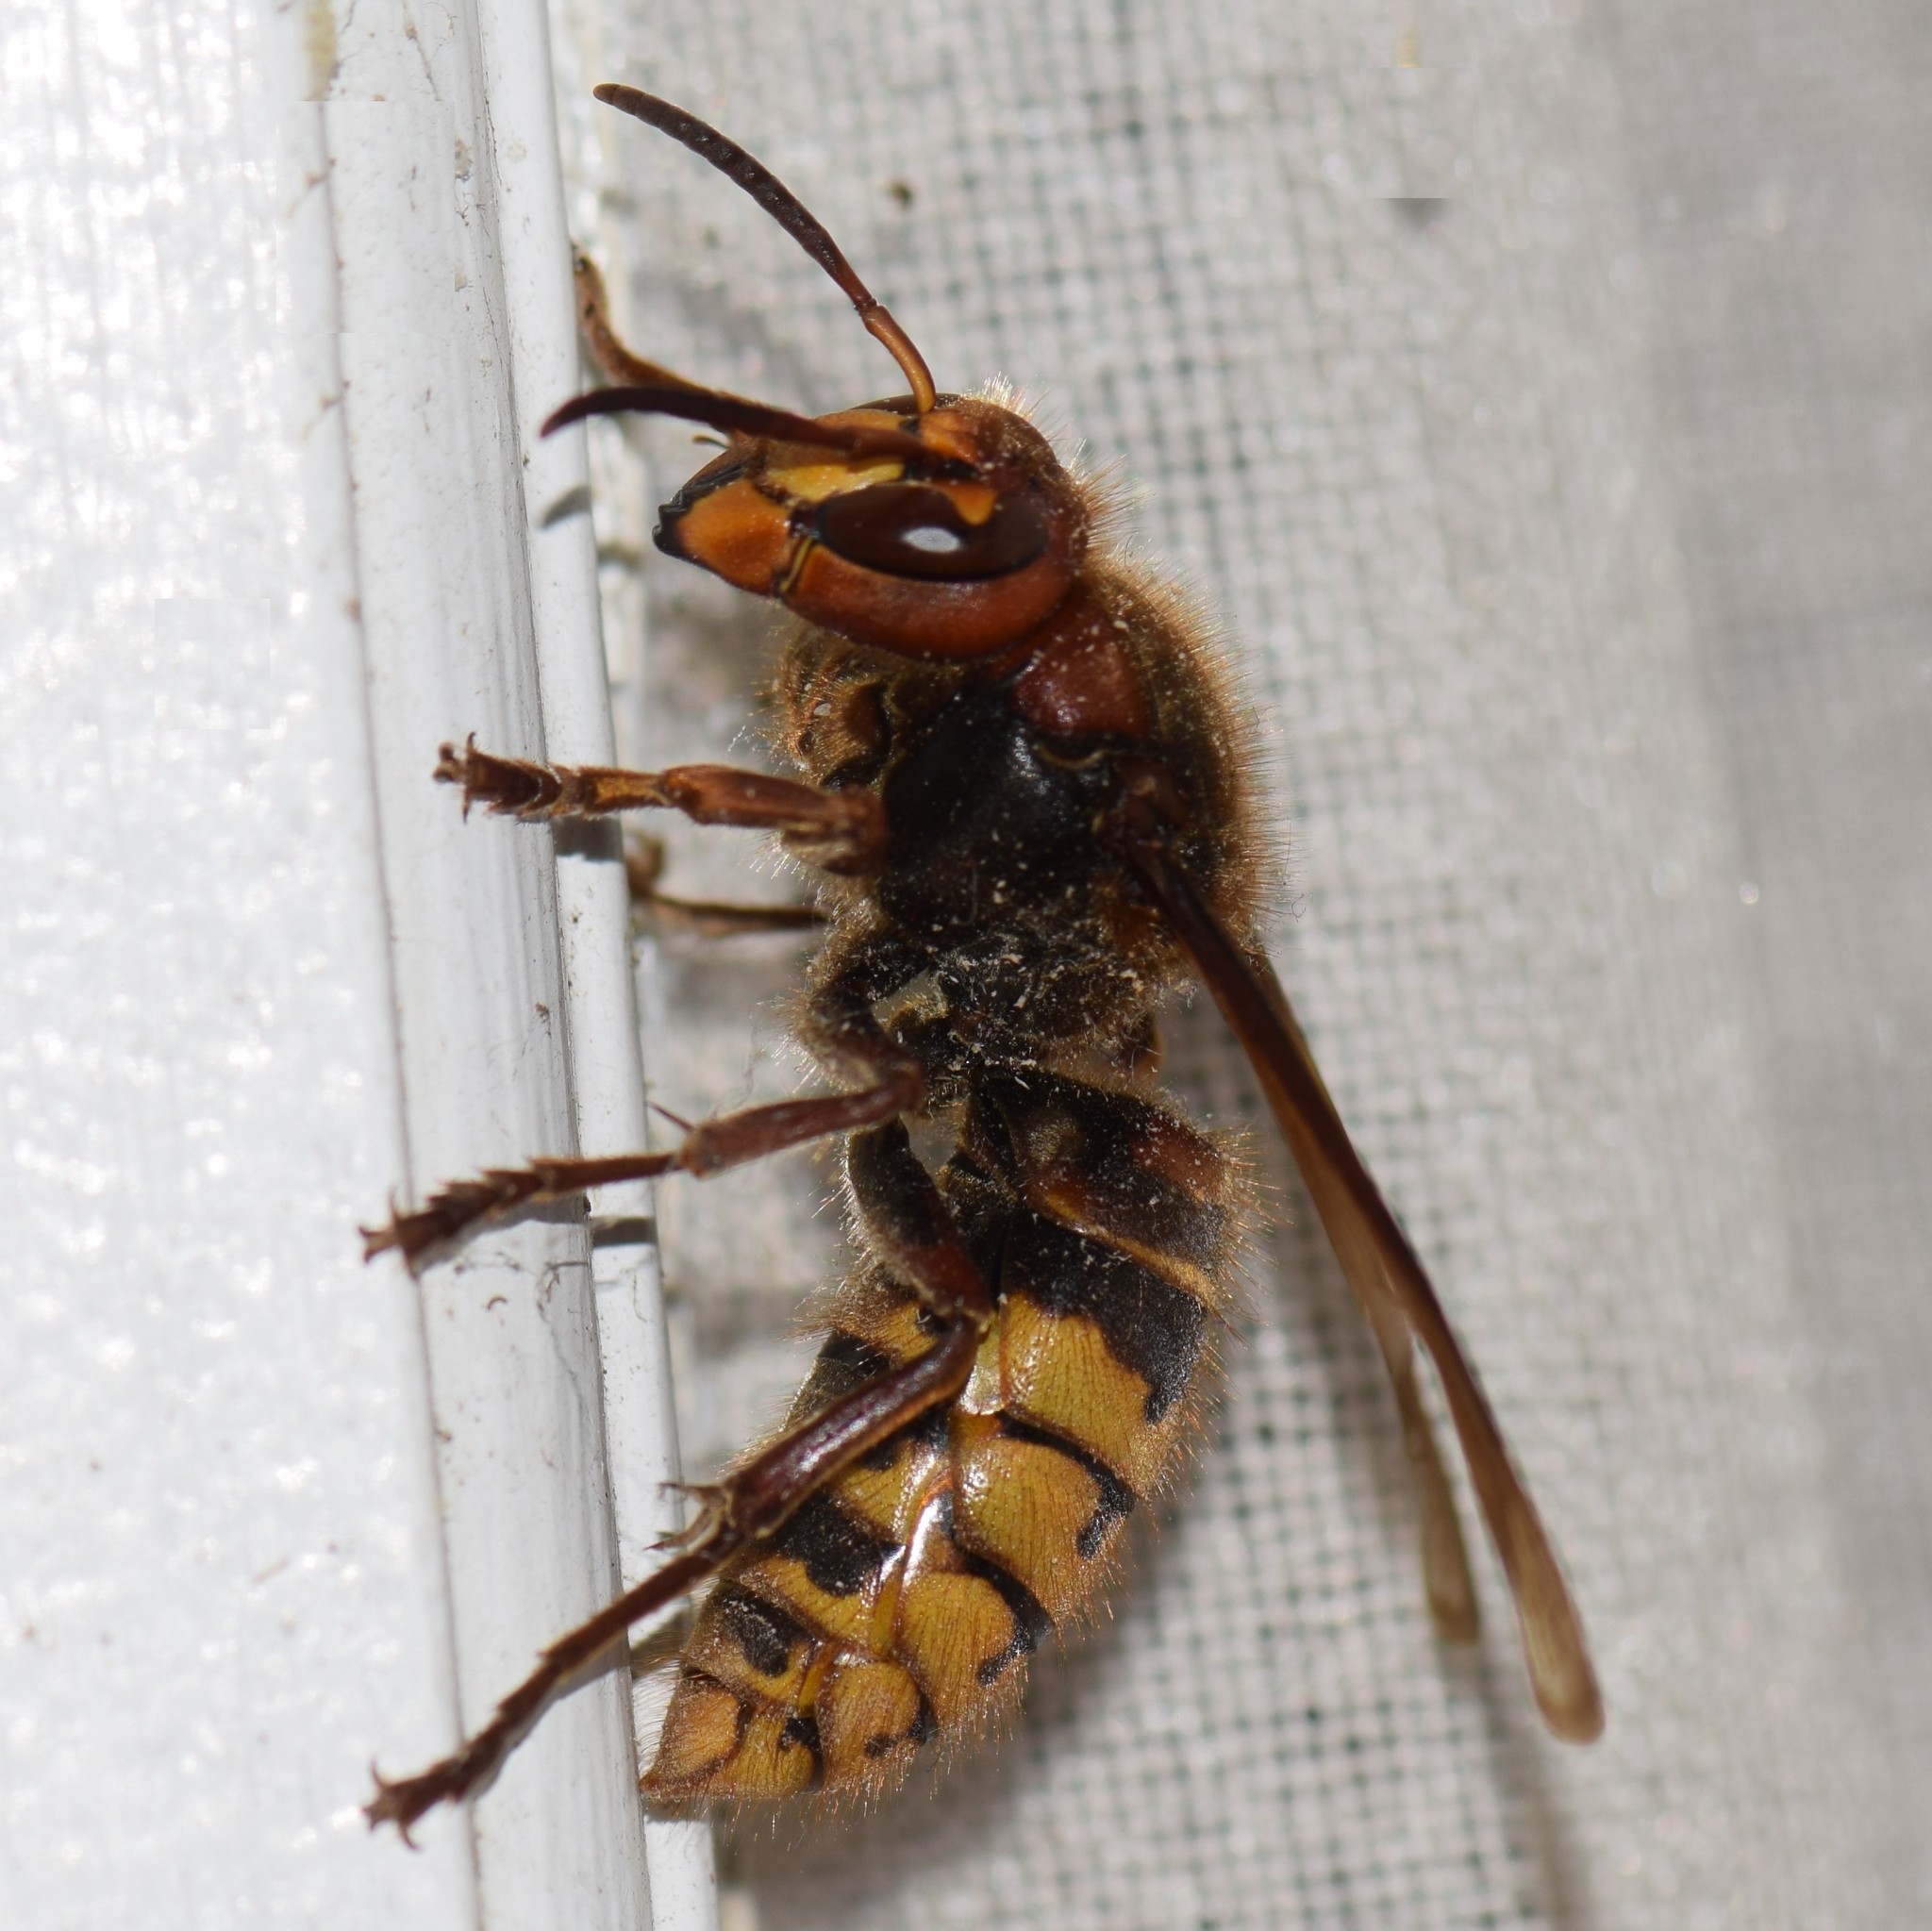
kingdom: Animalia
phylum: Arthropoda
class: Insecta
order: Hymenoptera
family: Vespidae
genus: Vespa
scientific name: Vespa crabro
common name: Hornet
